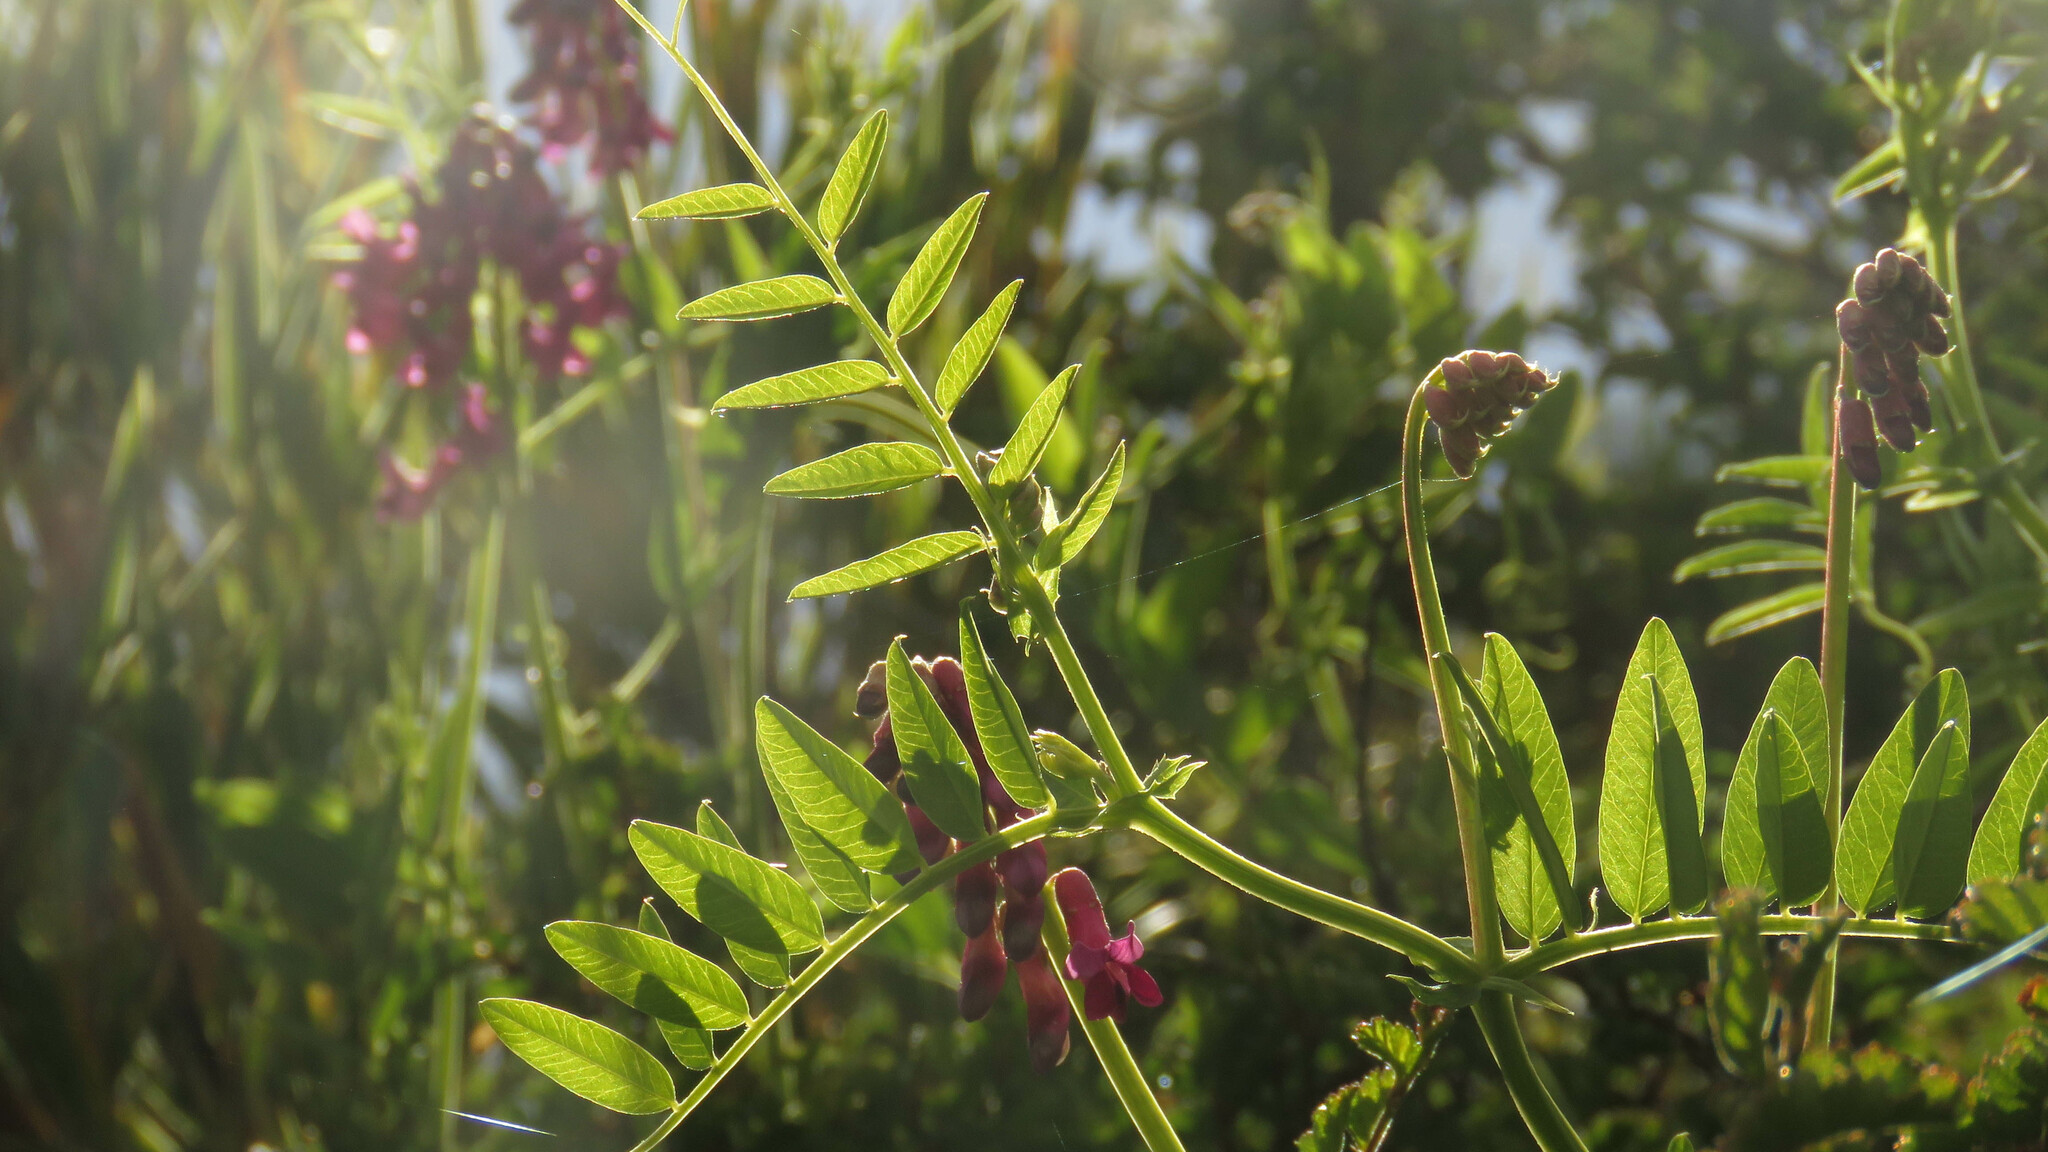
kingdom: Plantae
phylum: Tracheophyta
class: Magnoliopsida
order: Fabales
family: Fabaceae
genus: Vicia
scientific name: Vicia nigricans
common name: Black vetch
